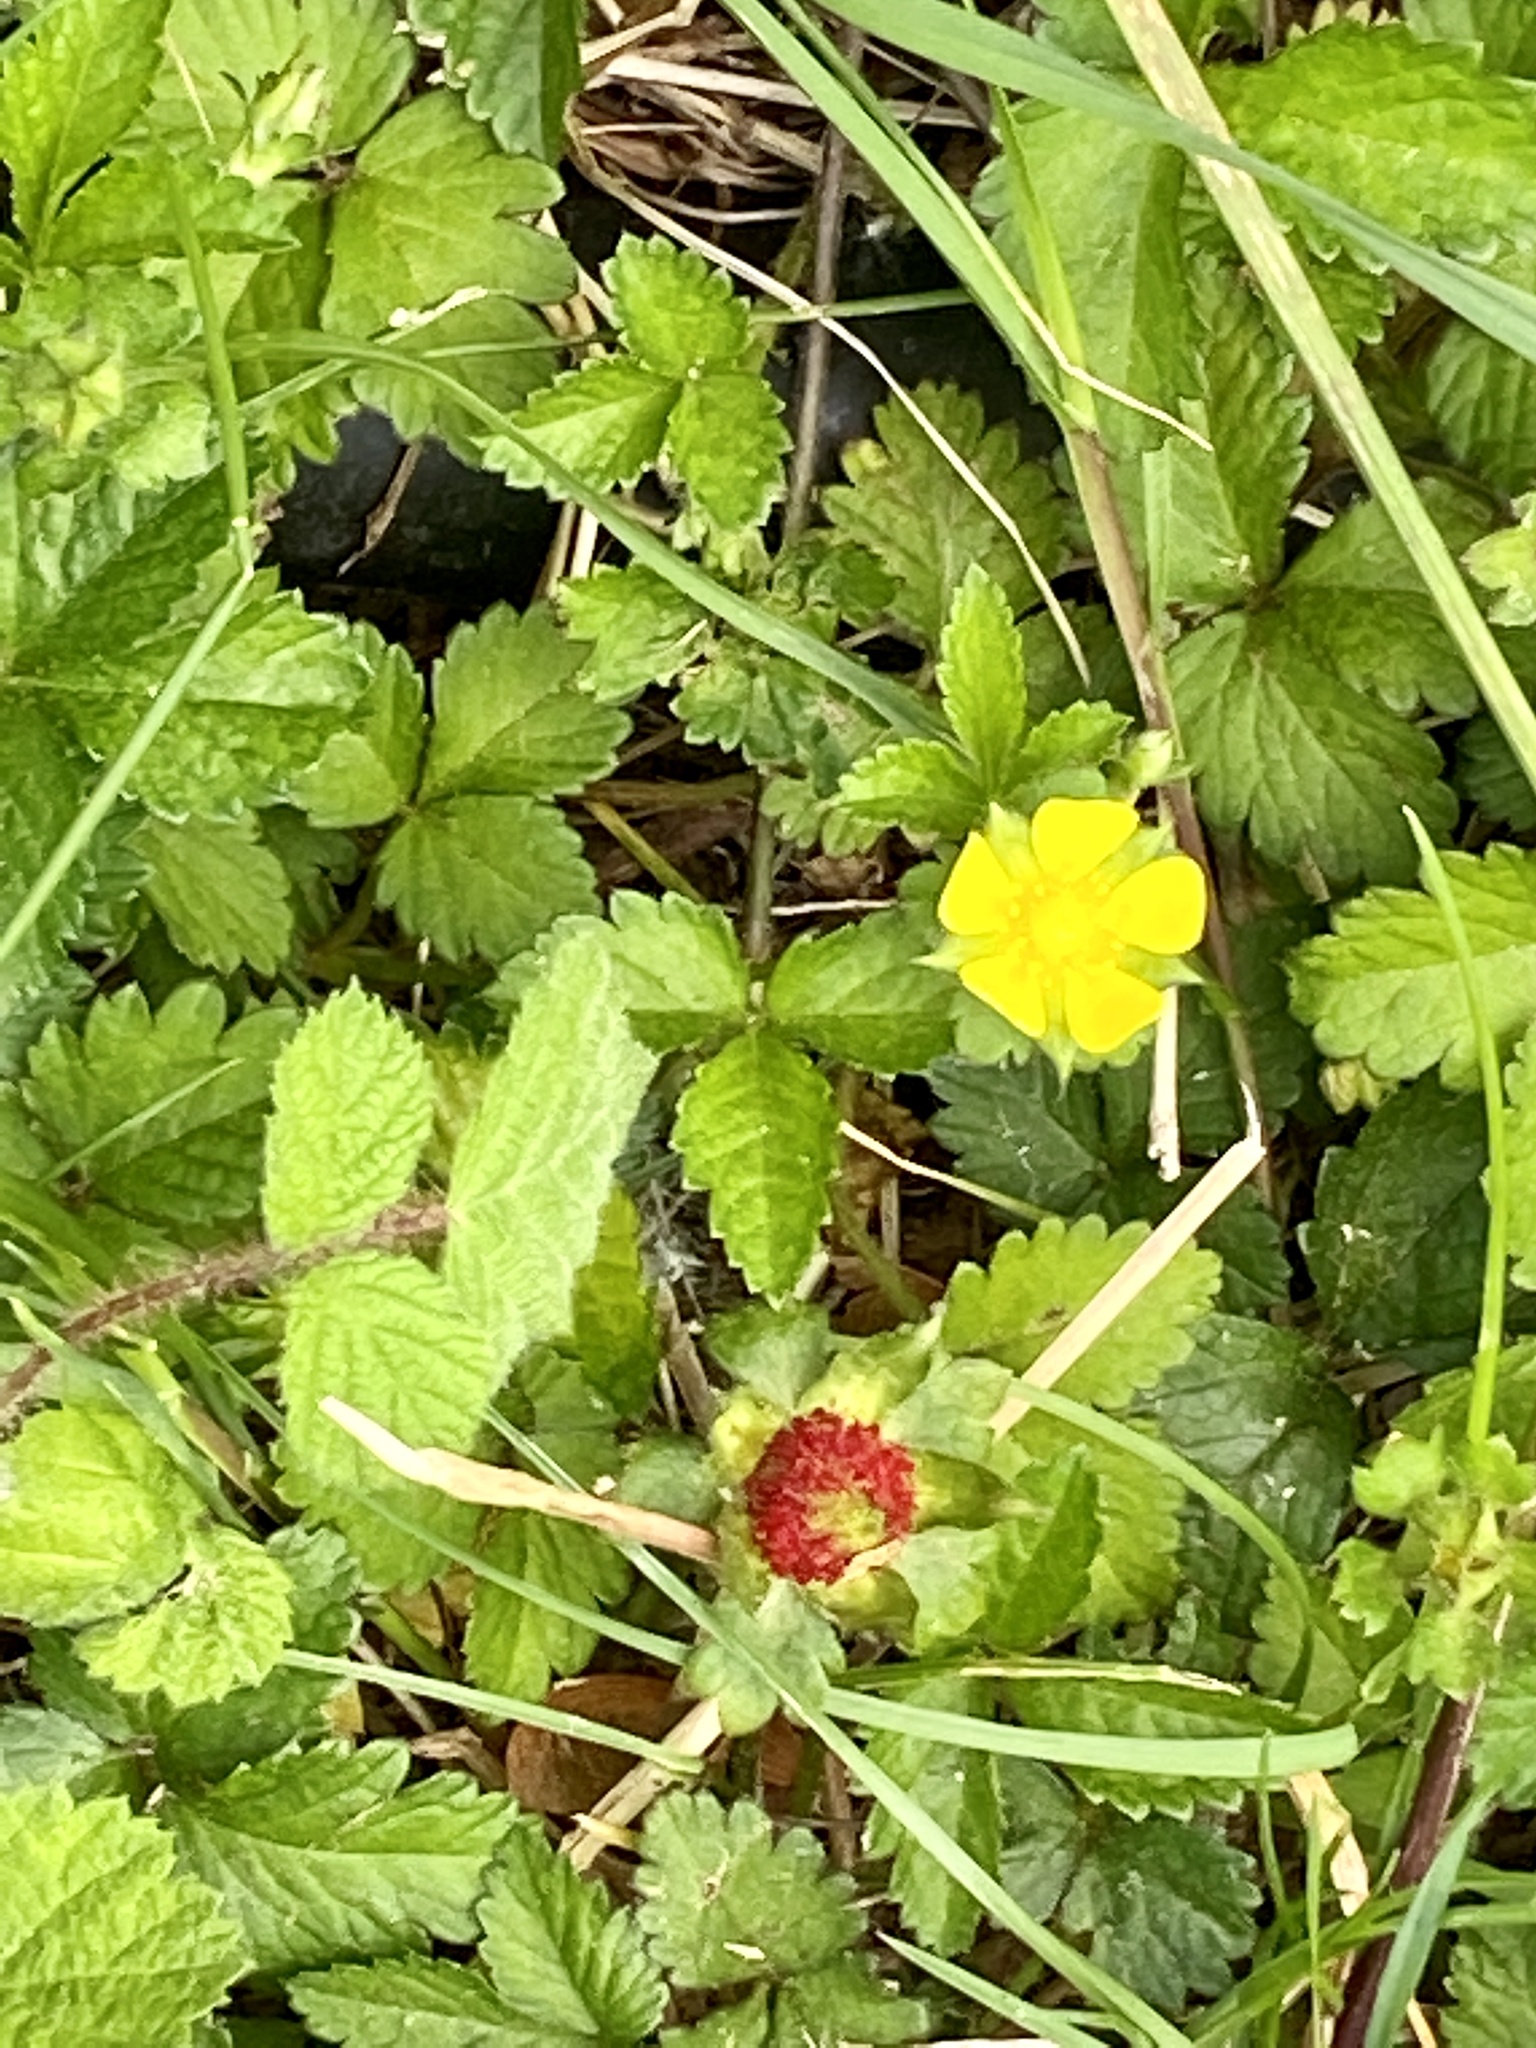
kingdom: Plantae
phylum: Tracheophyta
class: Magnoliopsida
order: Rosales
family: Rosaceae
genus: Potentilla
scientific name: Potentilla indica
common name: Yellow-flowered strawberry
